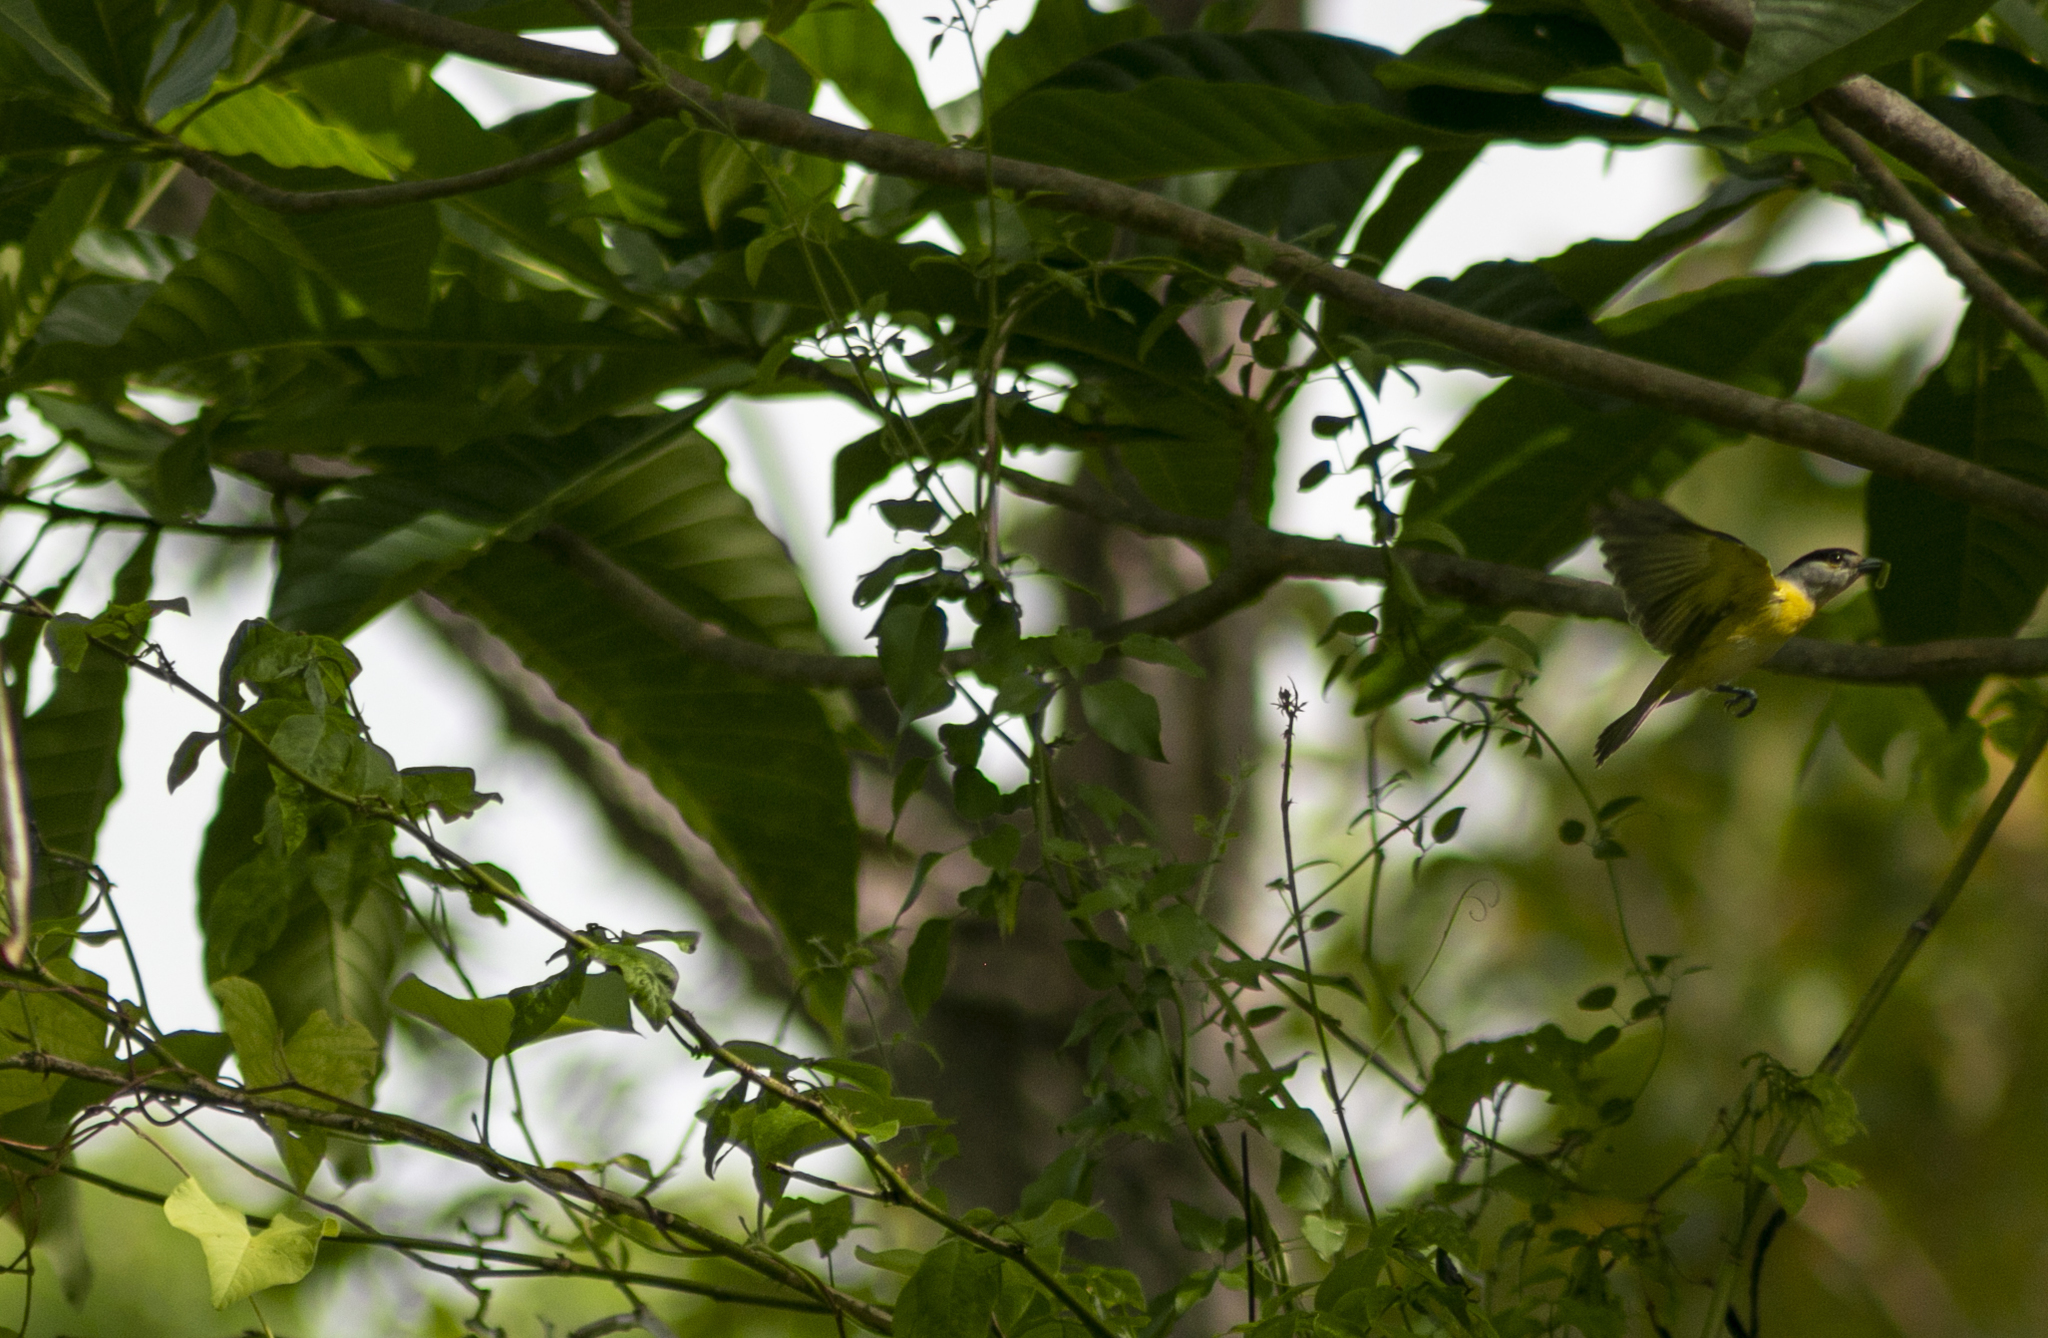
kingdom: Animalia
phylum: Chordata
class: Aves
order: Passeriformes
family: Cotingidae
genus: Pachyramphus
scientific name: Pachyramphus viridis
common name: Green-backed becard
